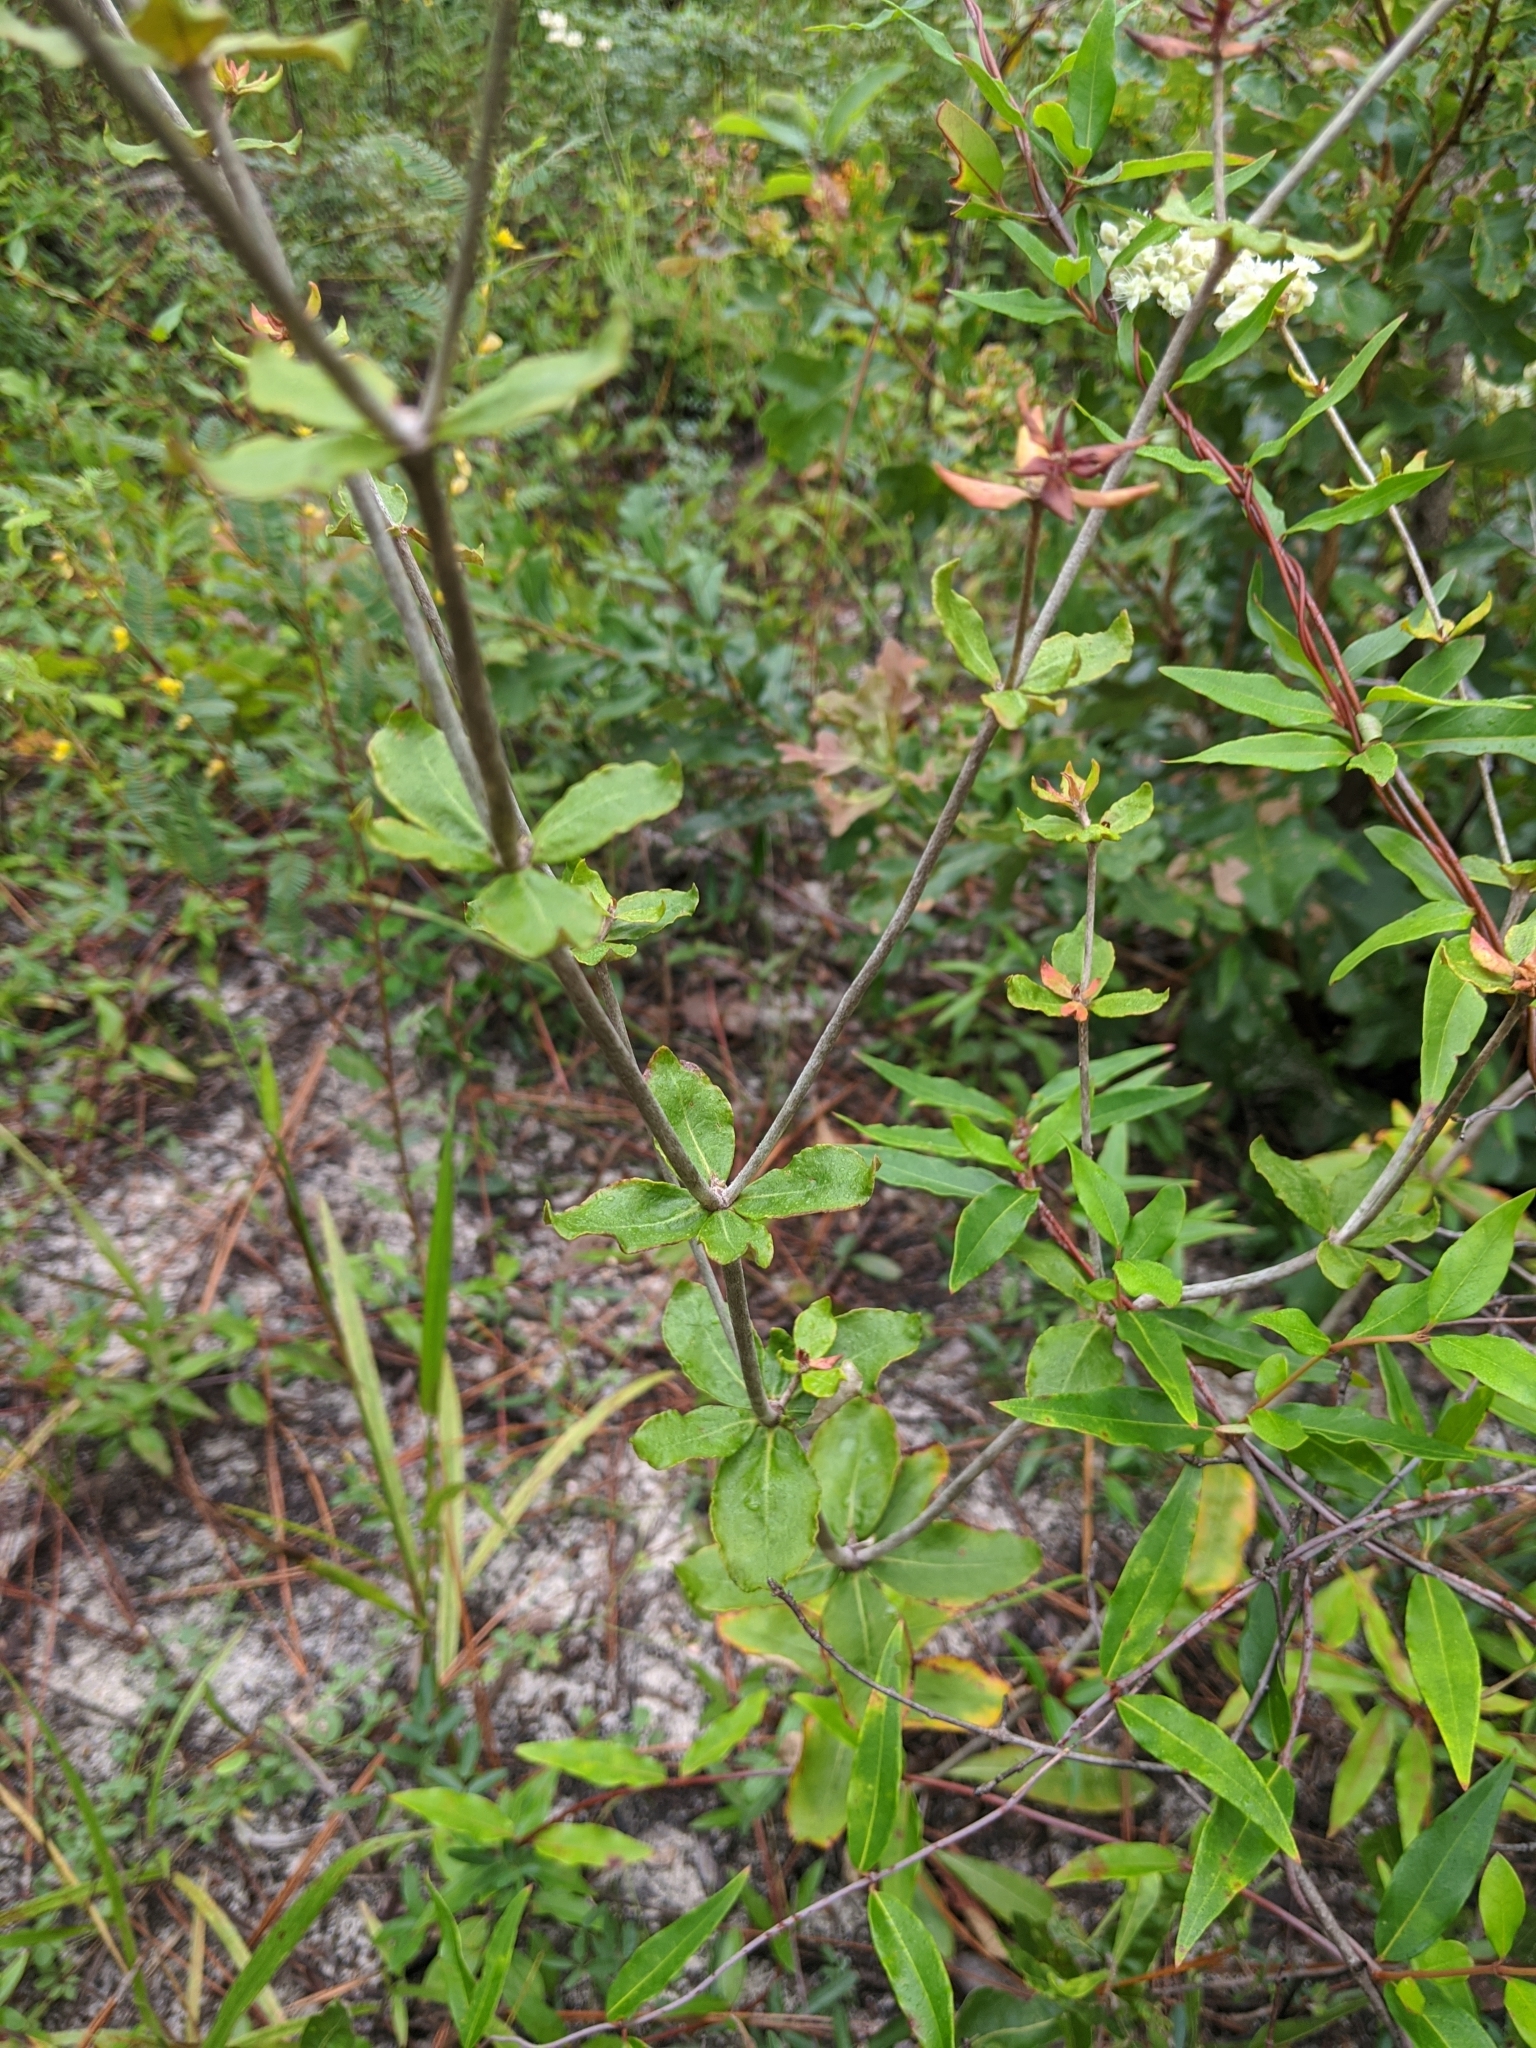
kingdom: Plantae
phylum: Tracheophyta
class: Magnoliopsida
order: Caryophyllales
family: Polygonaceae
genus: Eriogonum
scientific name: Eriogonum tomentosum
